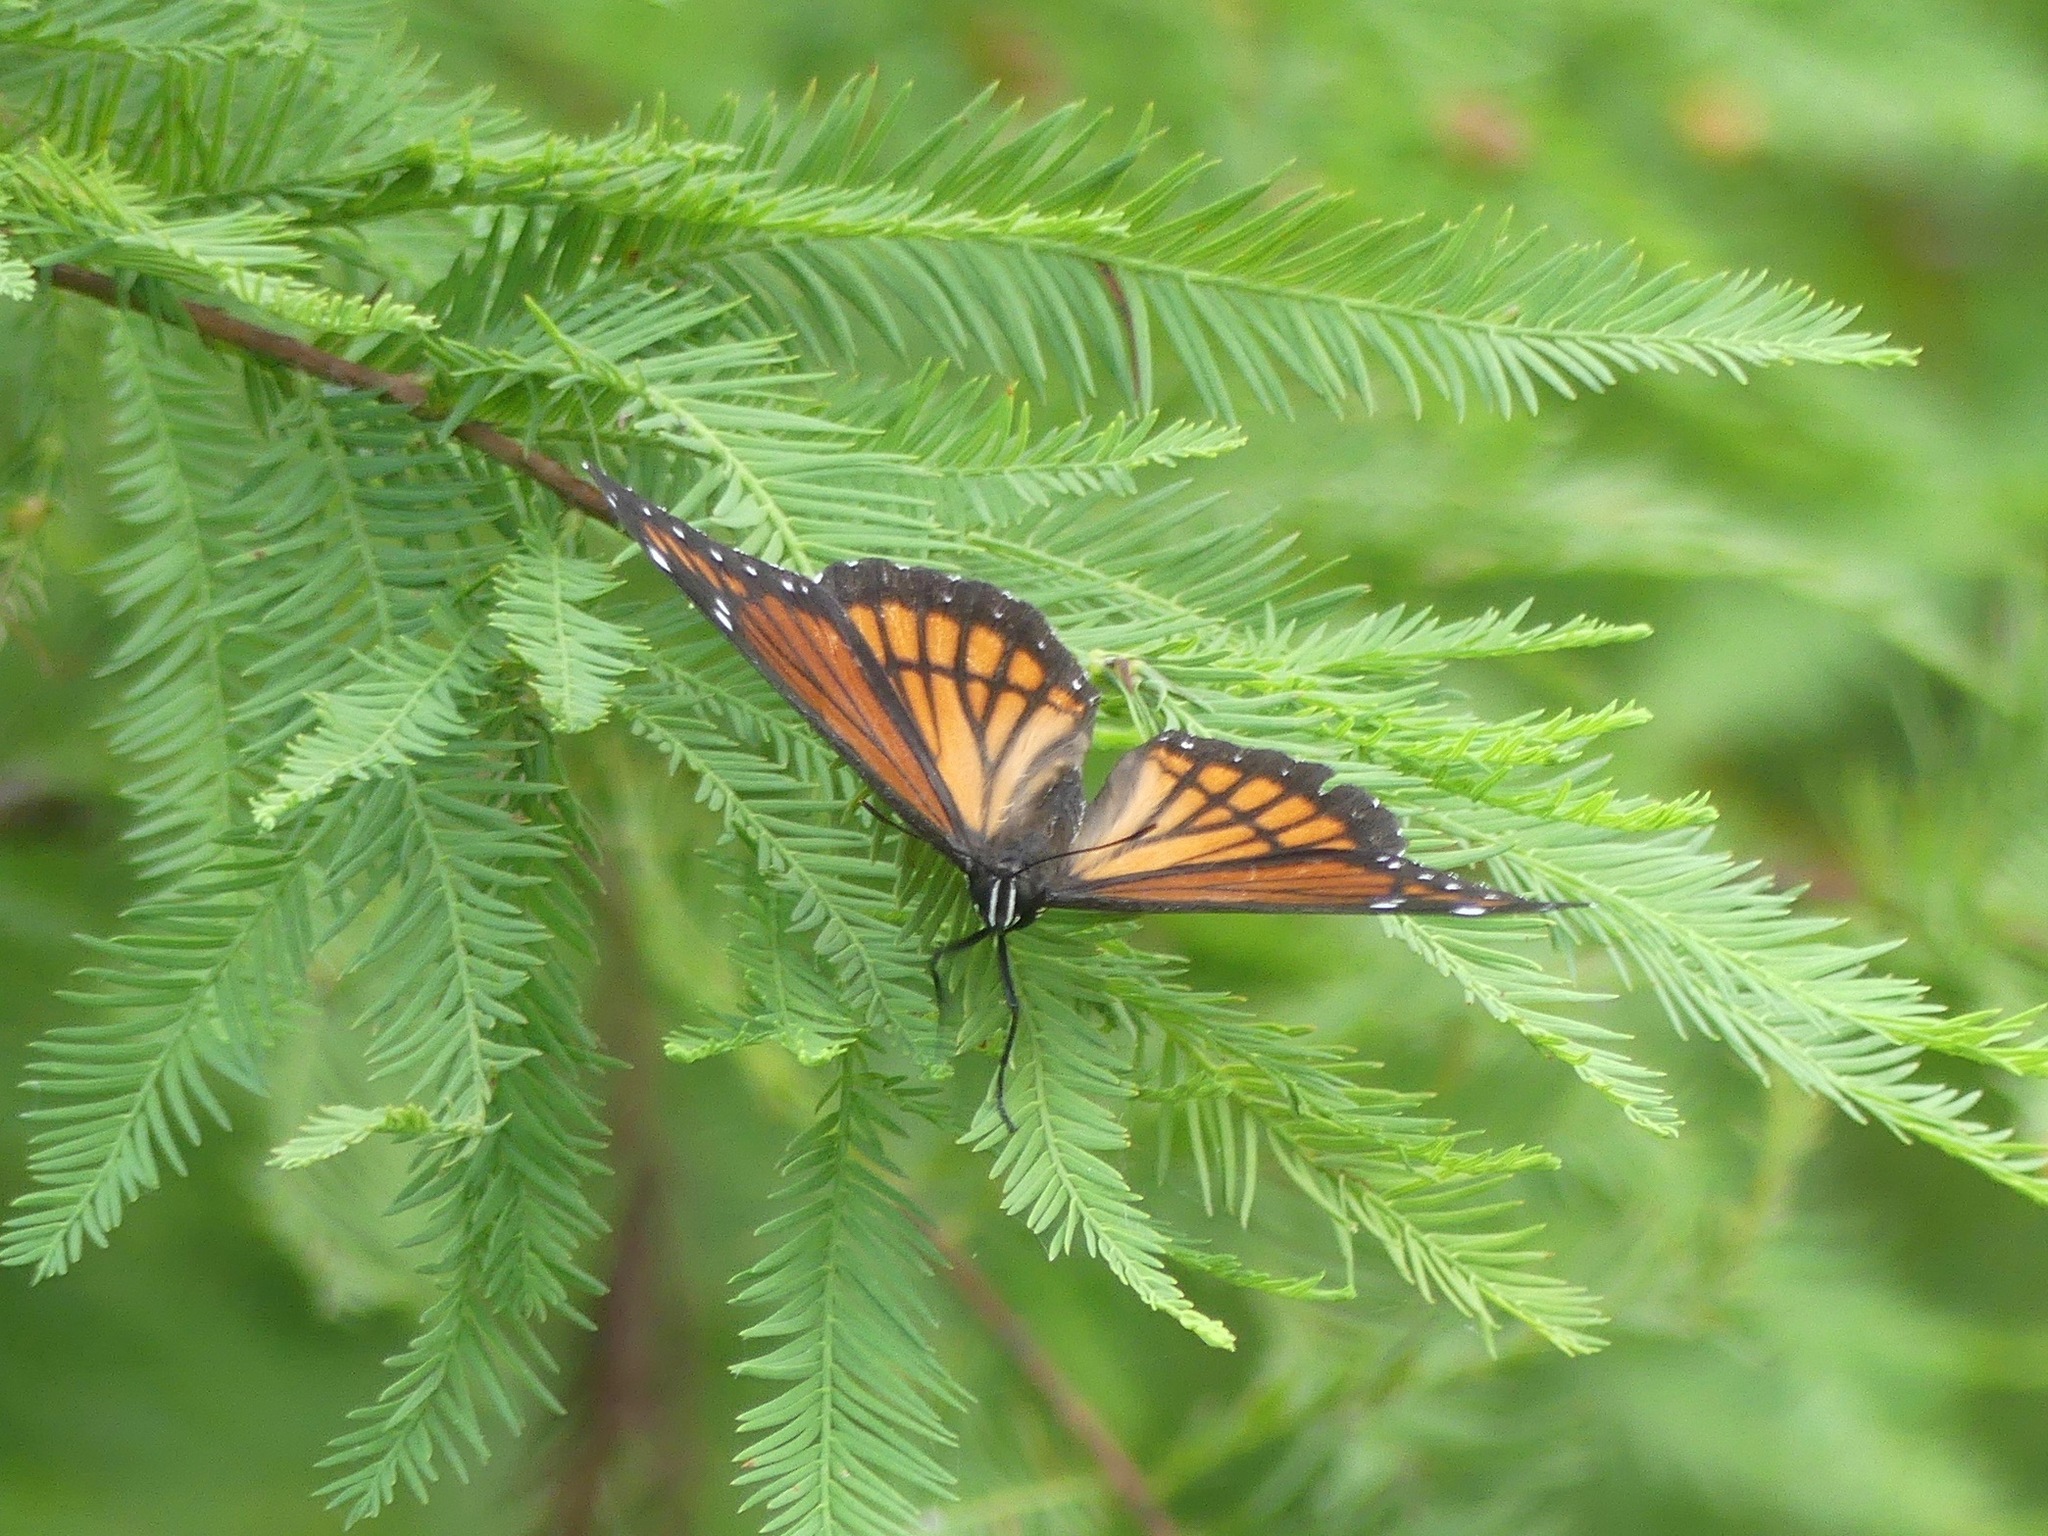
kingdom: Animalia
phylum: Arthropoda
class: Insecta
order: Lepidoptera
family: Nymphalidae
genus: Limenitis
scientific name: Limenitis archippus
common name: Viceroy
